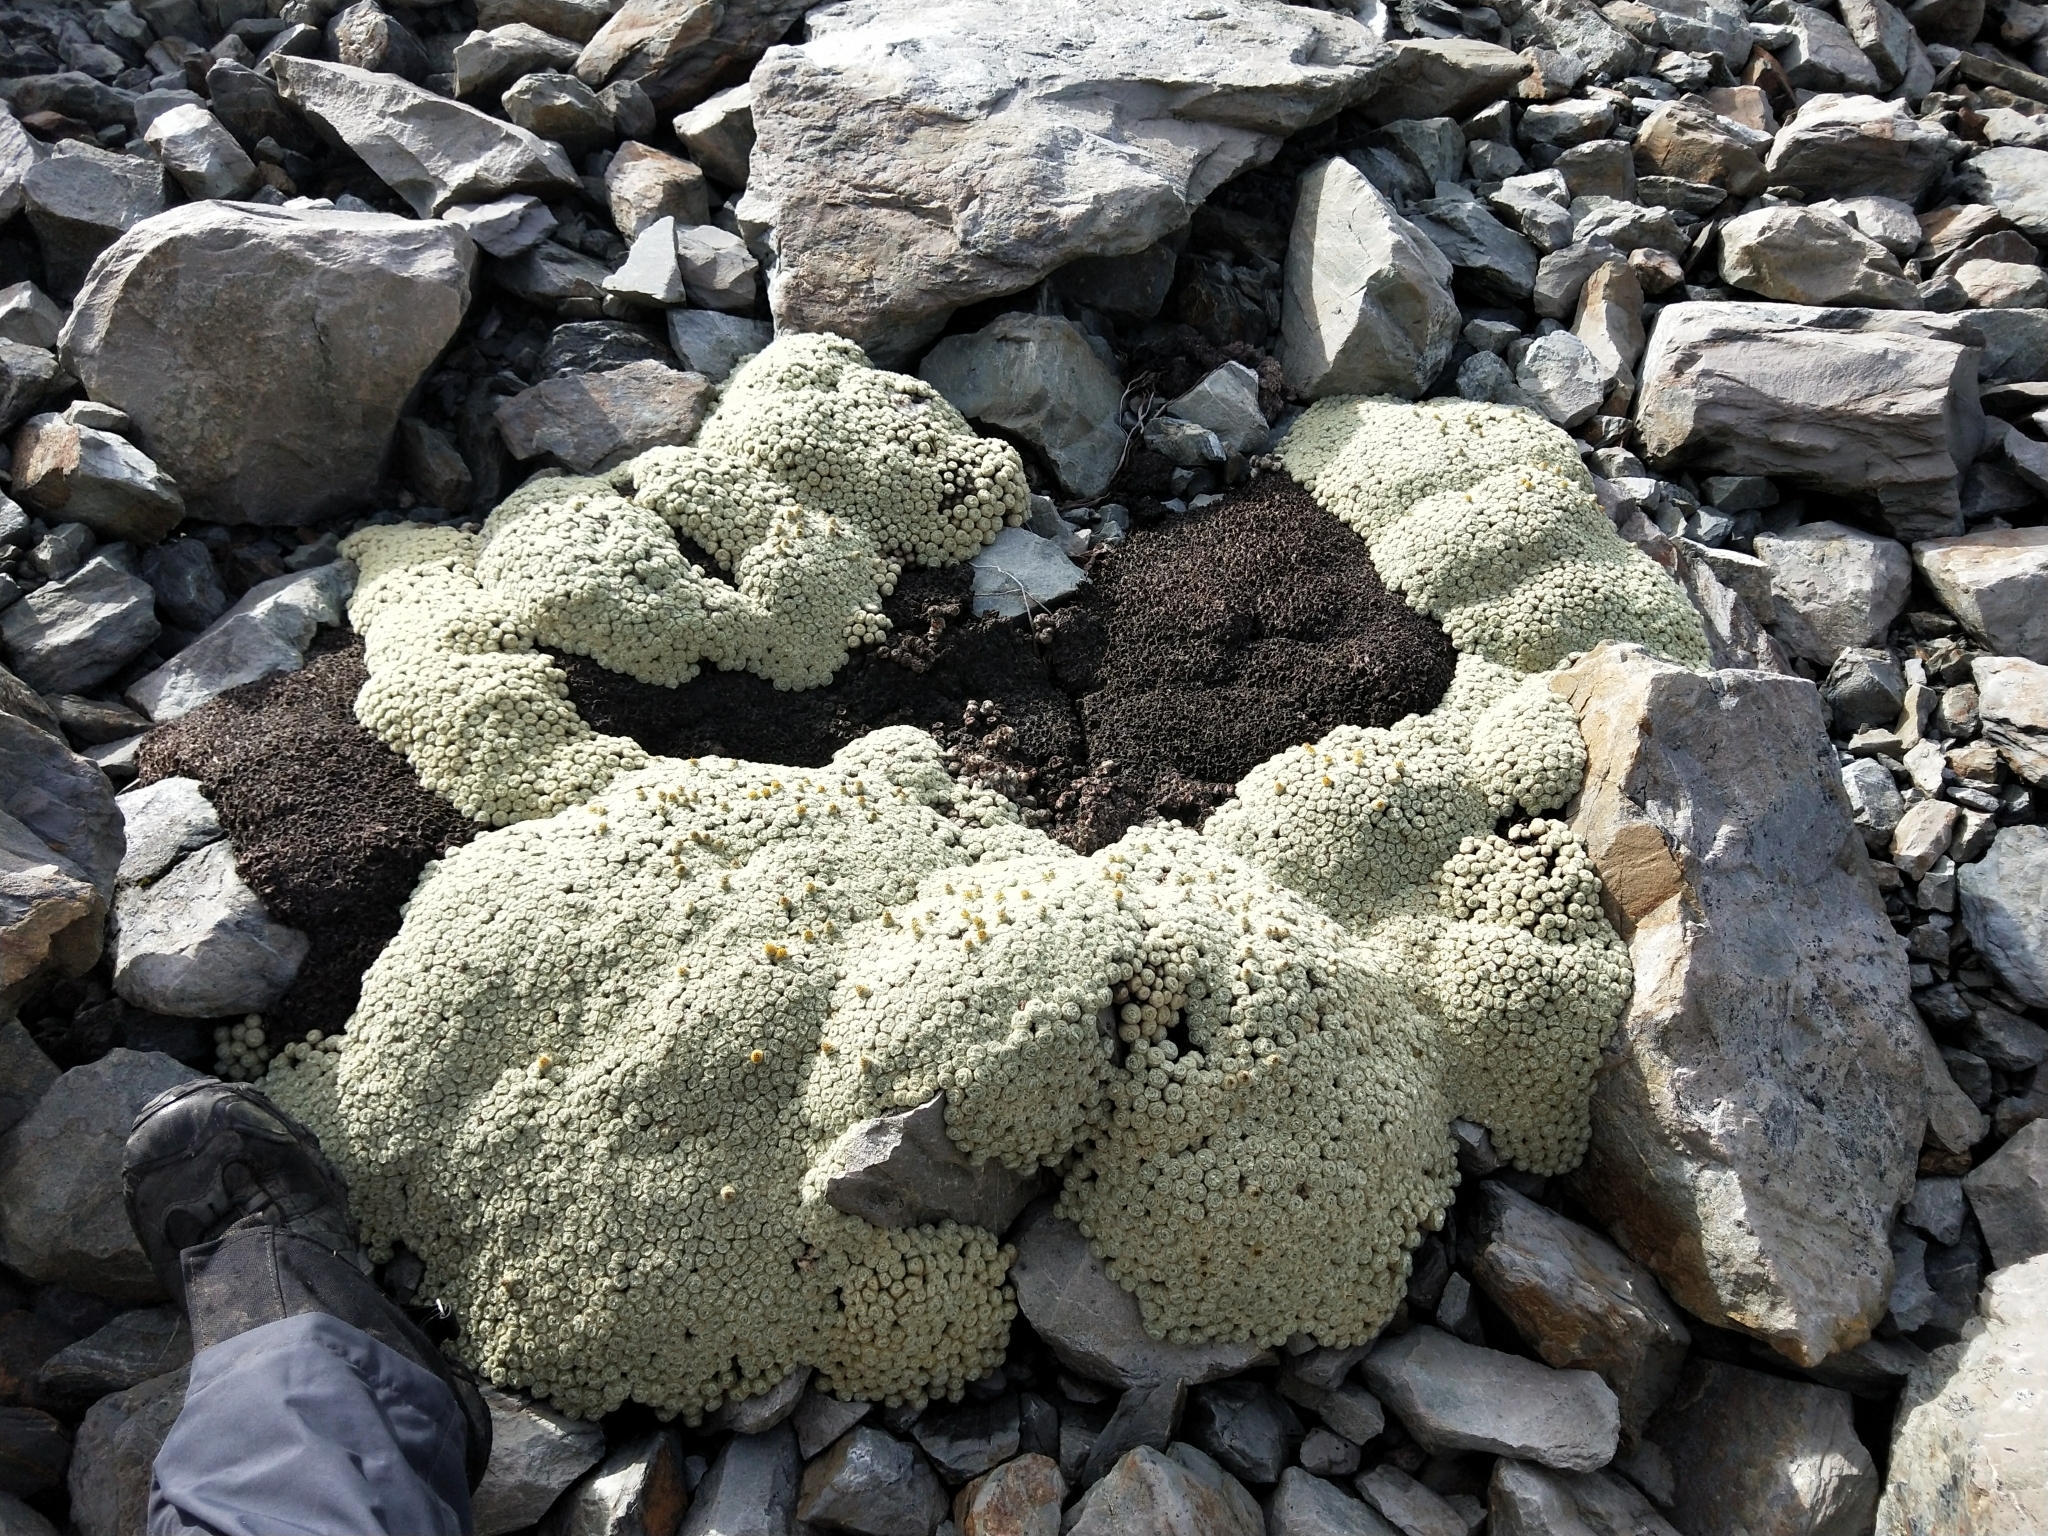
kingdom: Plantae
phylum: Tracheophyta
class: Magnoliopsida
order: Asterales
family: Asteraceae
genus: Haastia
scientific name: Haastia pulvinaris
